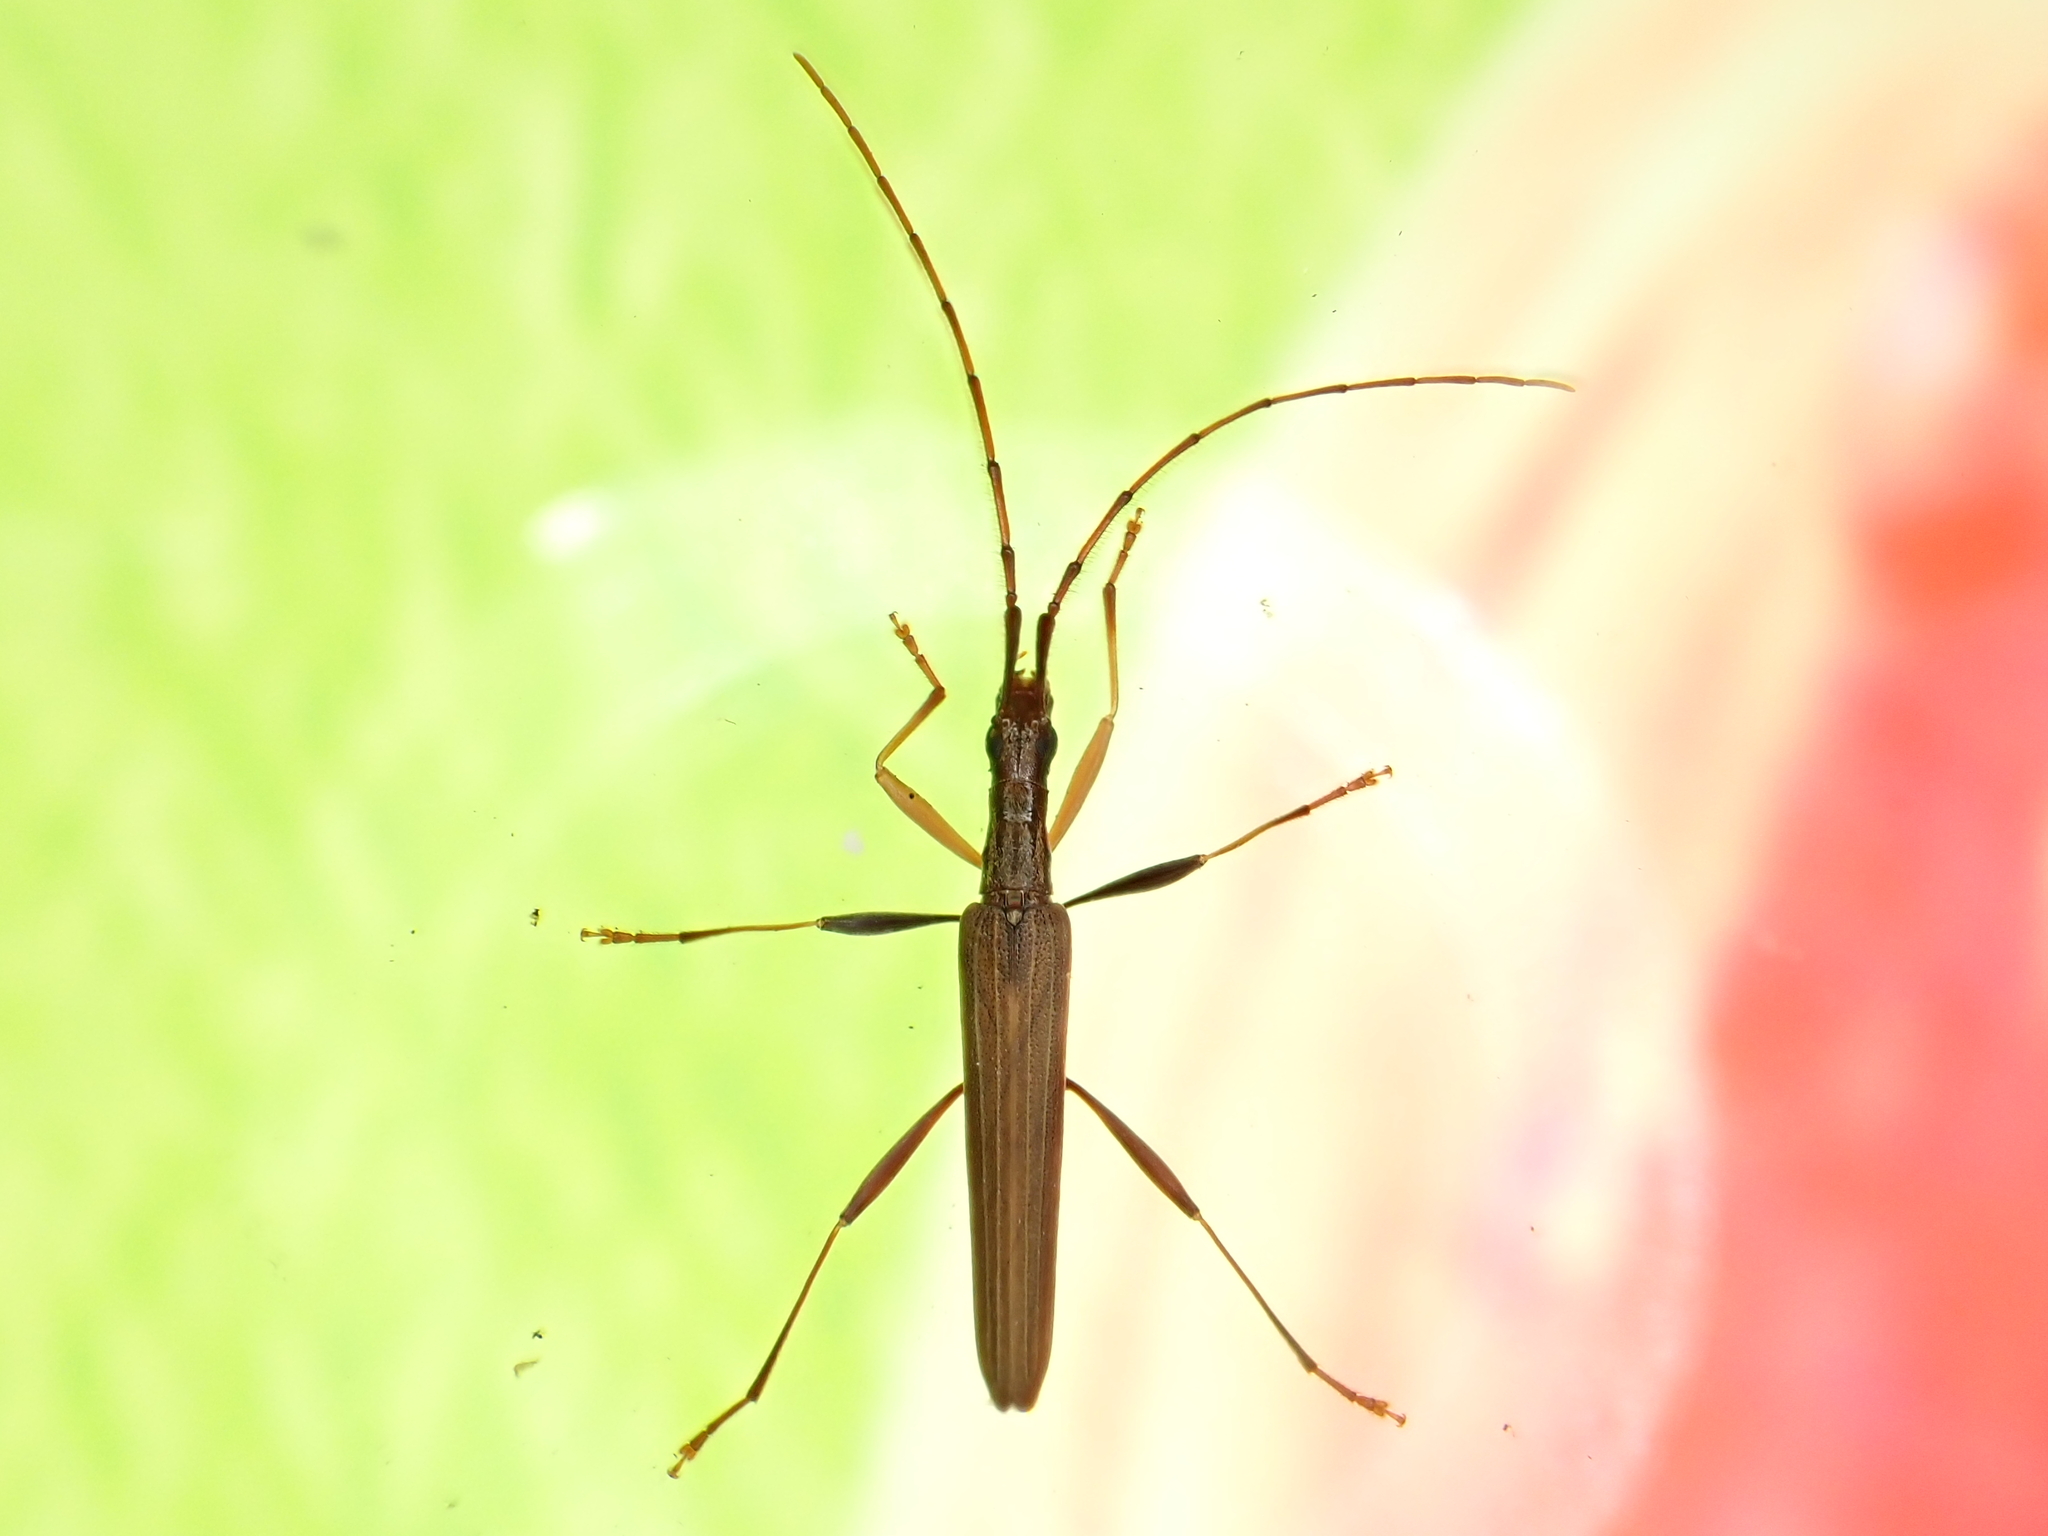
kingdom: Animalia
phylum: Arthropoda
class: Insecta
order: Coleoptera
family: Cerambycidae
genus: Stenopotes
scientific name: Stenopotes pallidus
